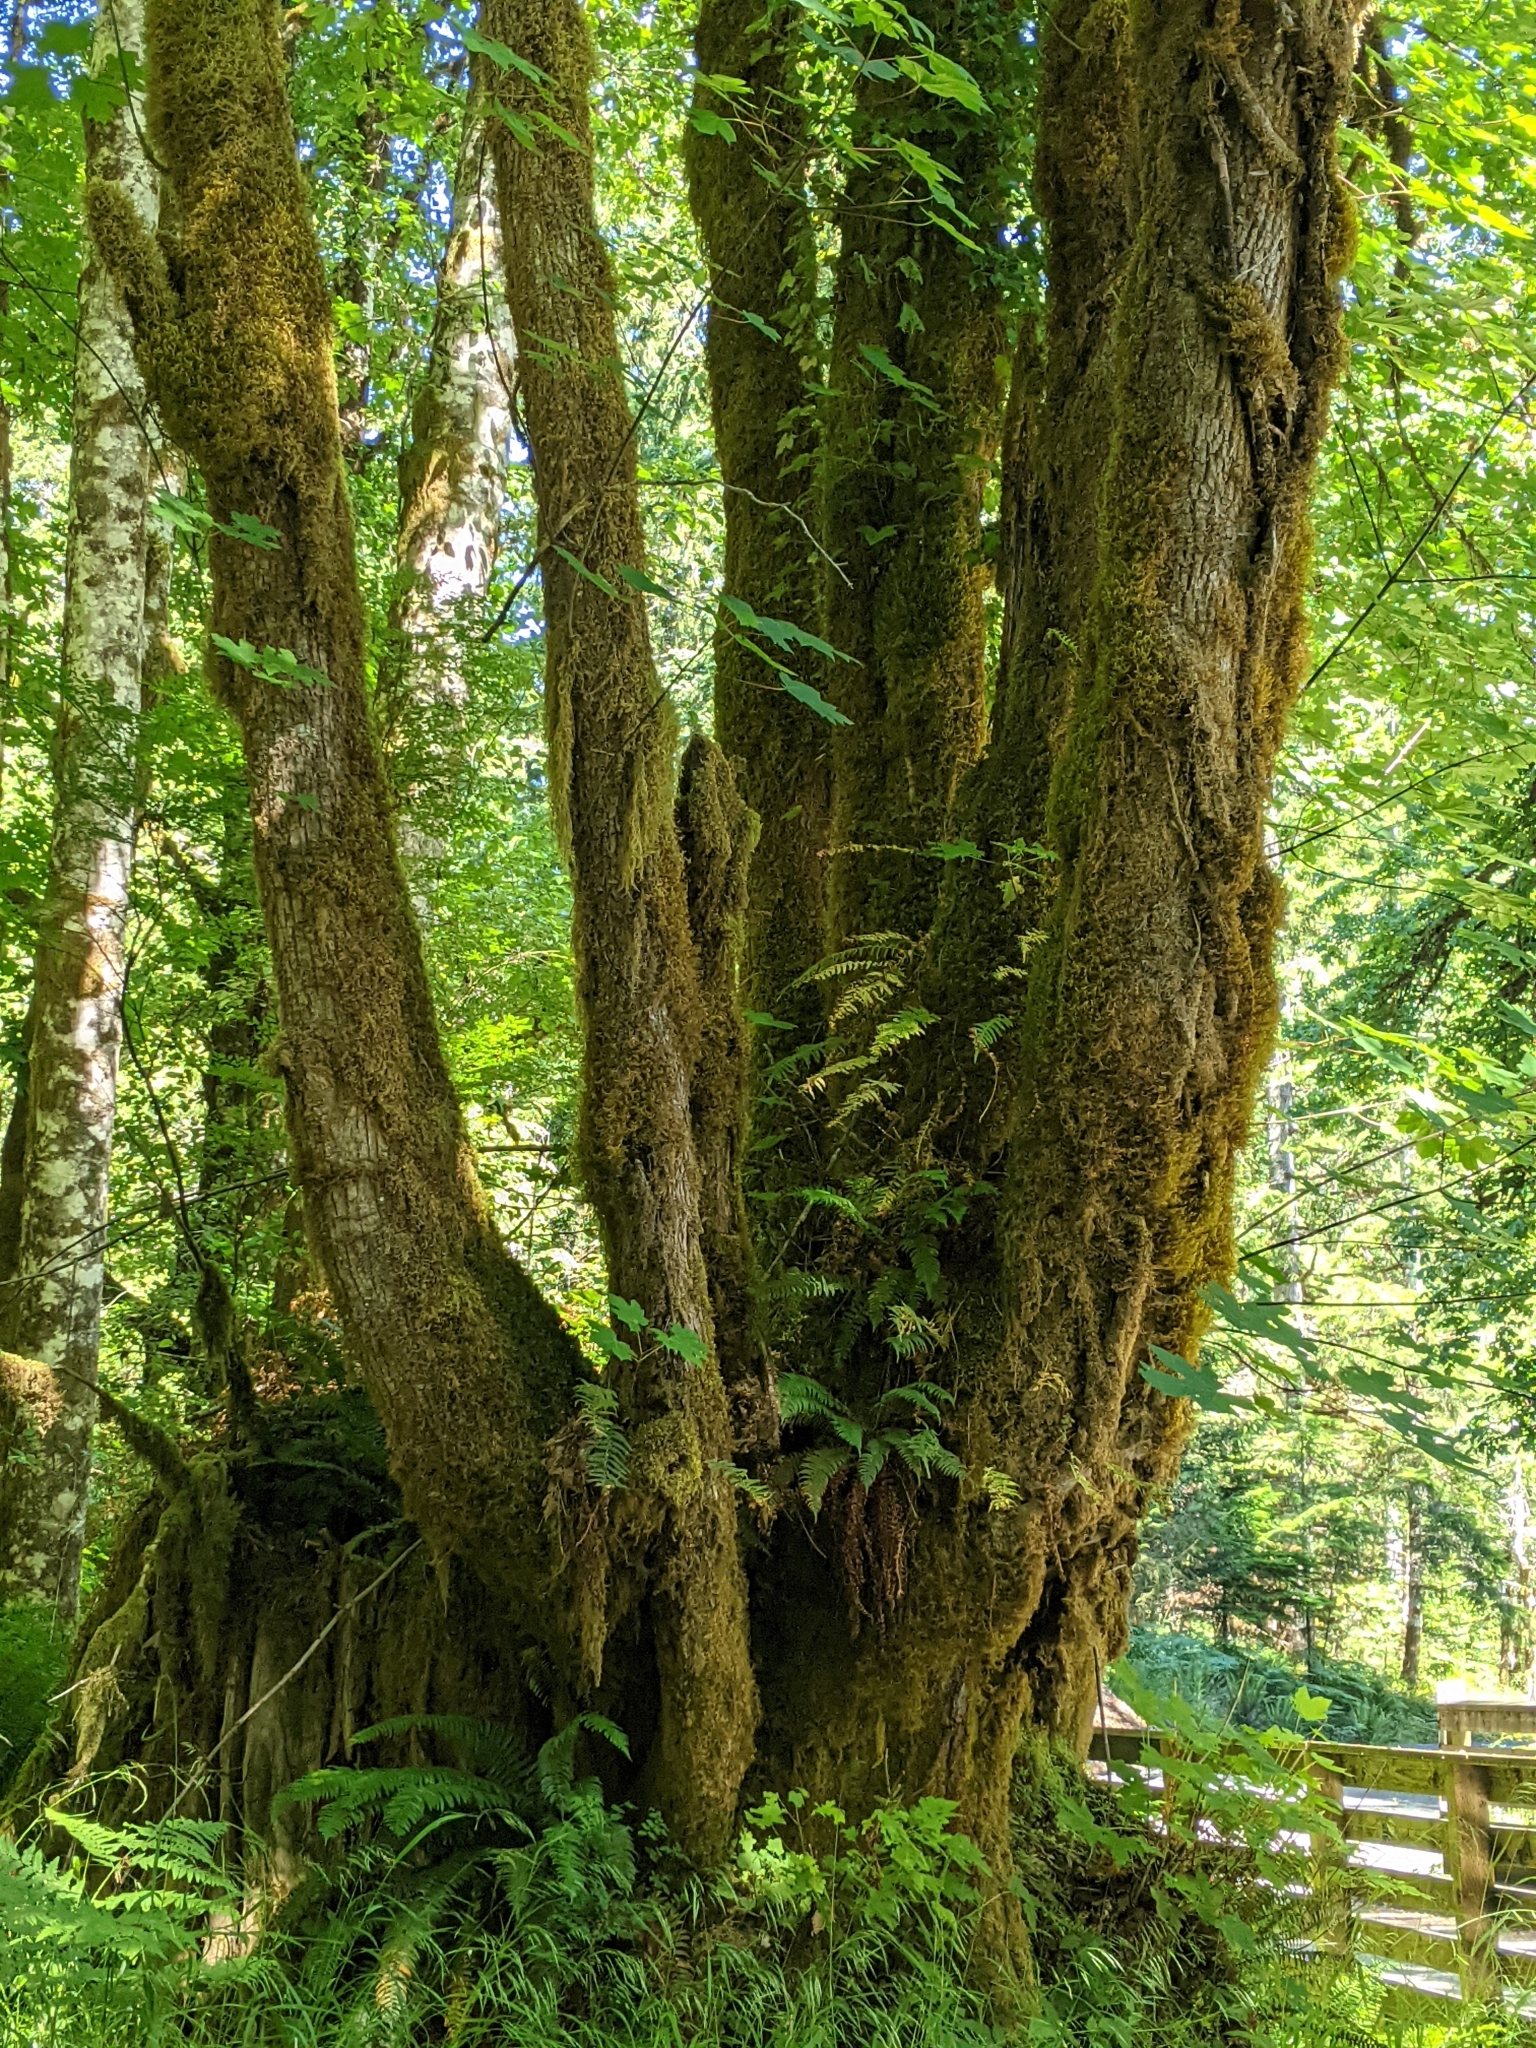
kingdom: Plantae
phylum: Tracheophyta
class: Magnoliopsida
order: Sapindales
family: Sapindaceae
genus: Acer
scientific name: Acer macrophyllum
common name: Oregon maple
